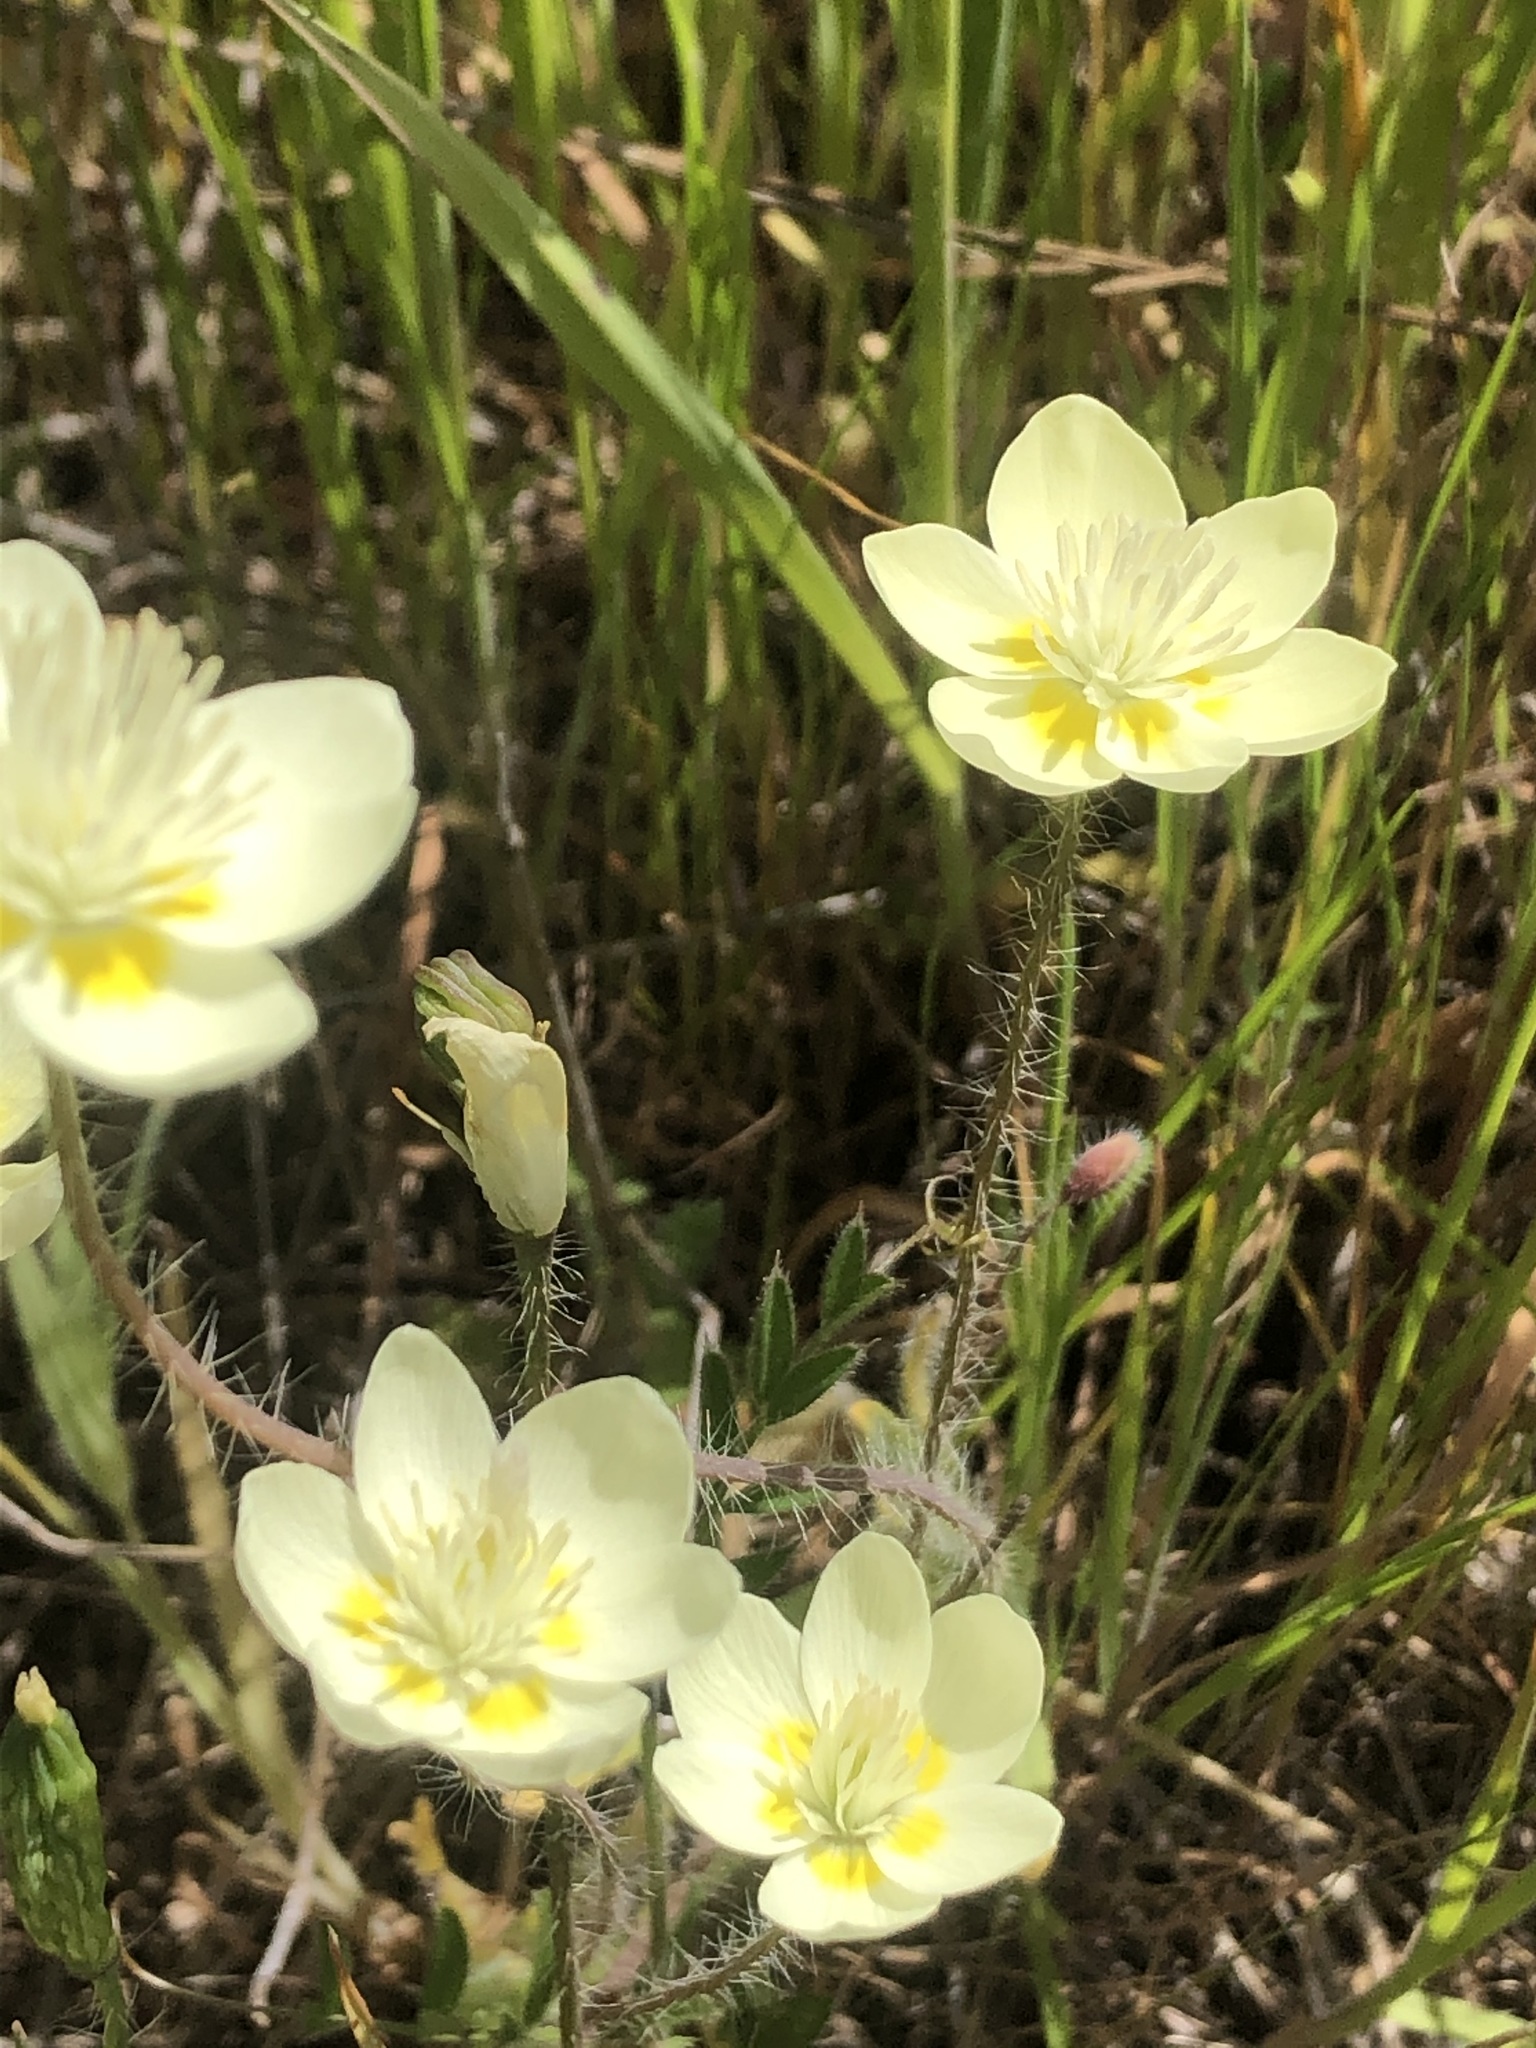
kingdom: Plantae
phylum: Tracheophyta
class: Magnoliopsida
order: Ranunculales
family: Papaveraceae
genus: Platystemon
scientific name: Platystemon californicus
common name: Cream-cups
